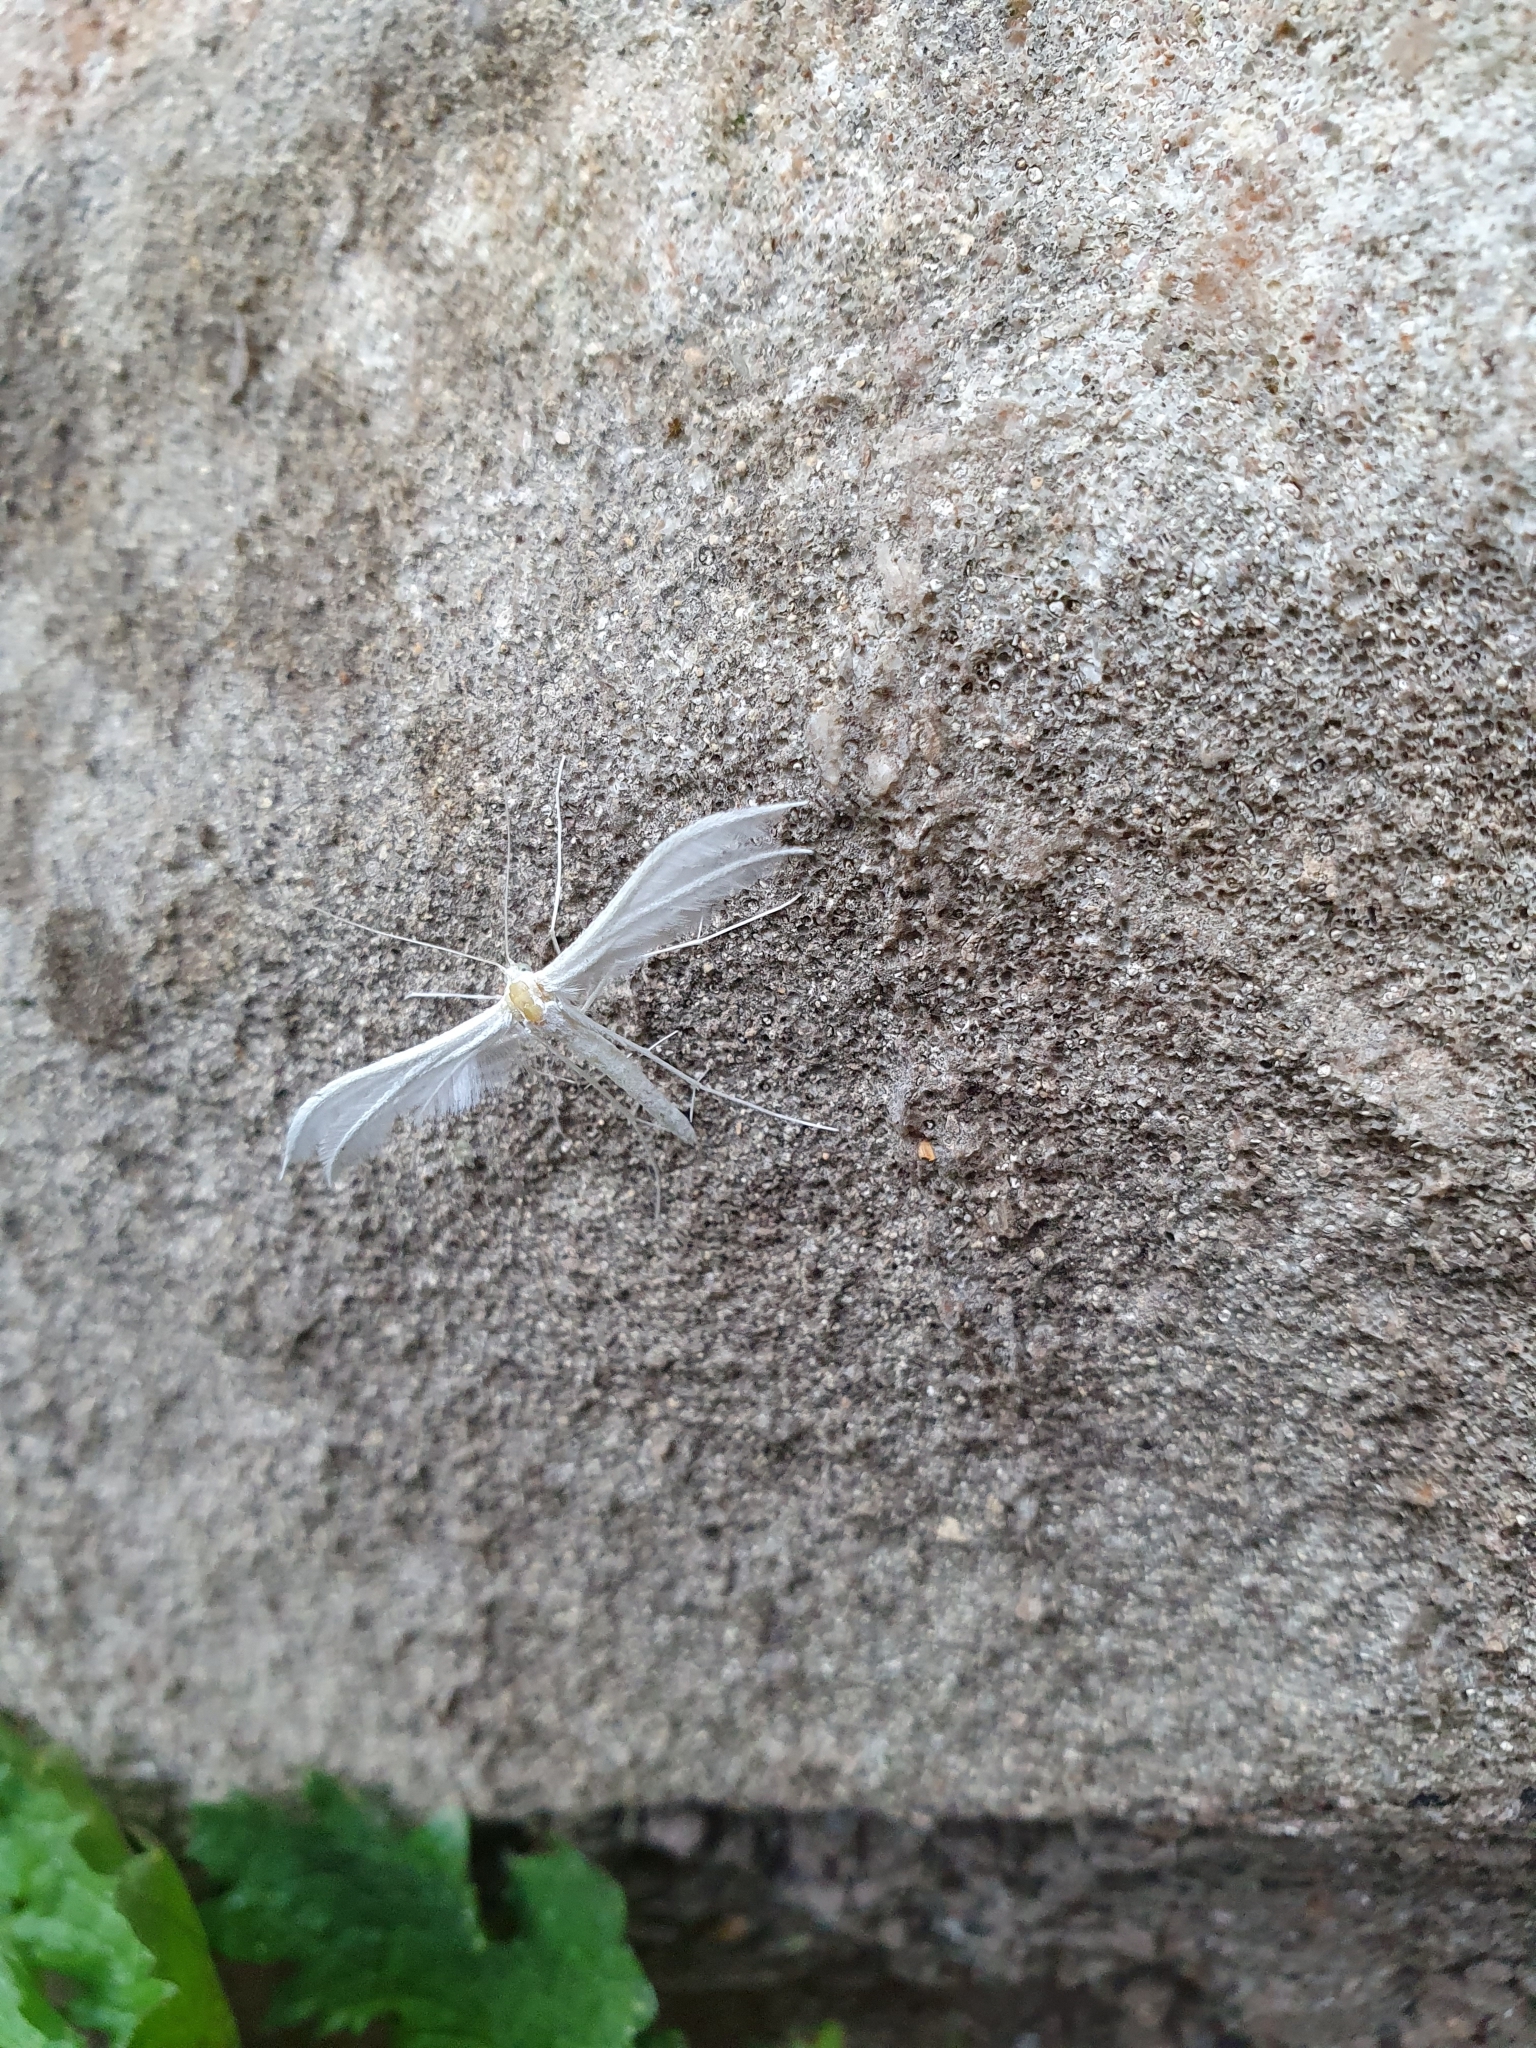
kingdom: Animalia
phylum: Arthropoda
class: Insecta
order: Lepidoptera
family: Pterophoridae
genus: Pterophorus
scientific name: Pterophorus pentadactyla
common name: White plume moth
